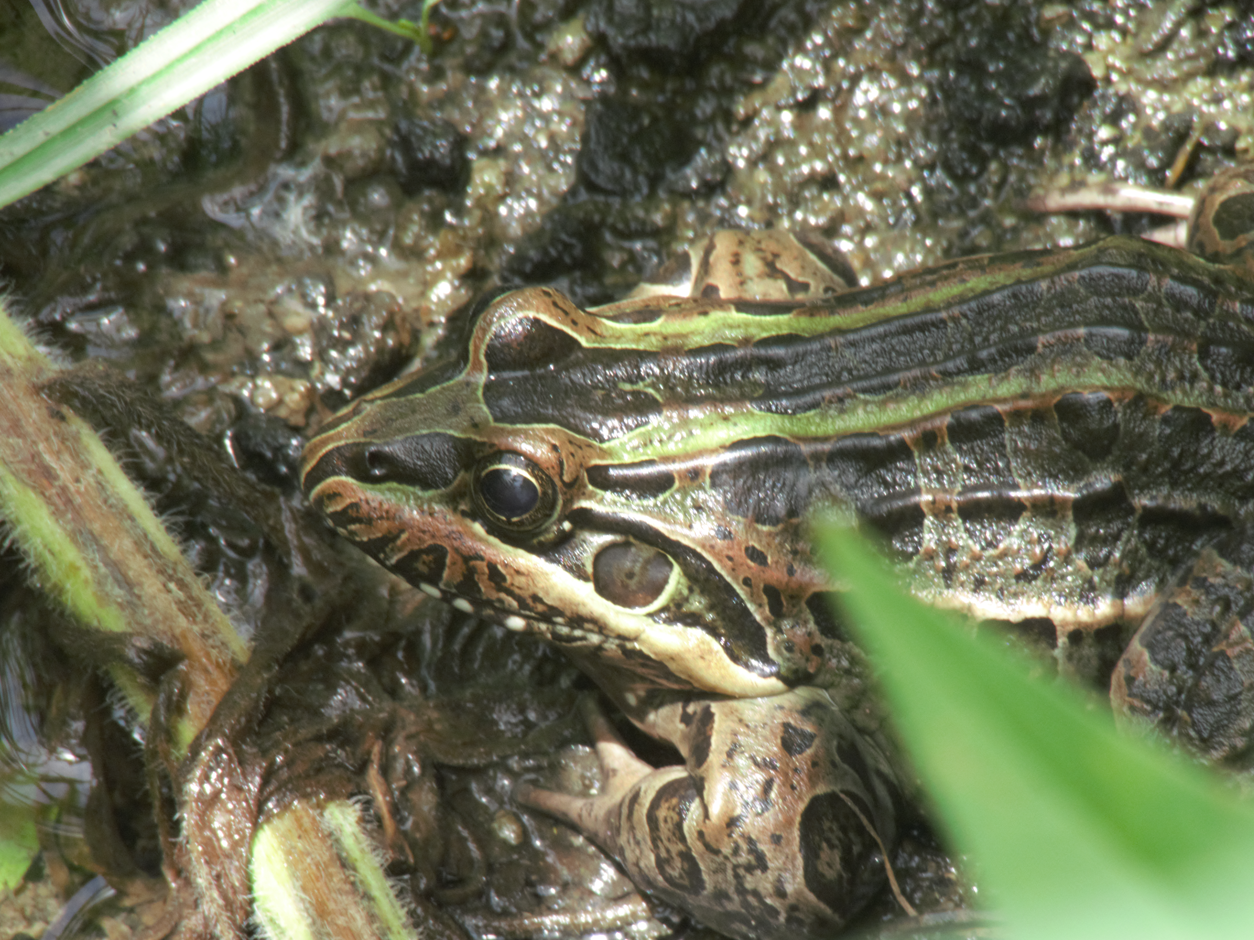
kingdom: Animalia
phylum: Chordata
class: Amphibia
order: Anura
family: Leptodactylidae
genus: Leptodactylus
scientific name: Leptodactylus luctator
